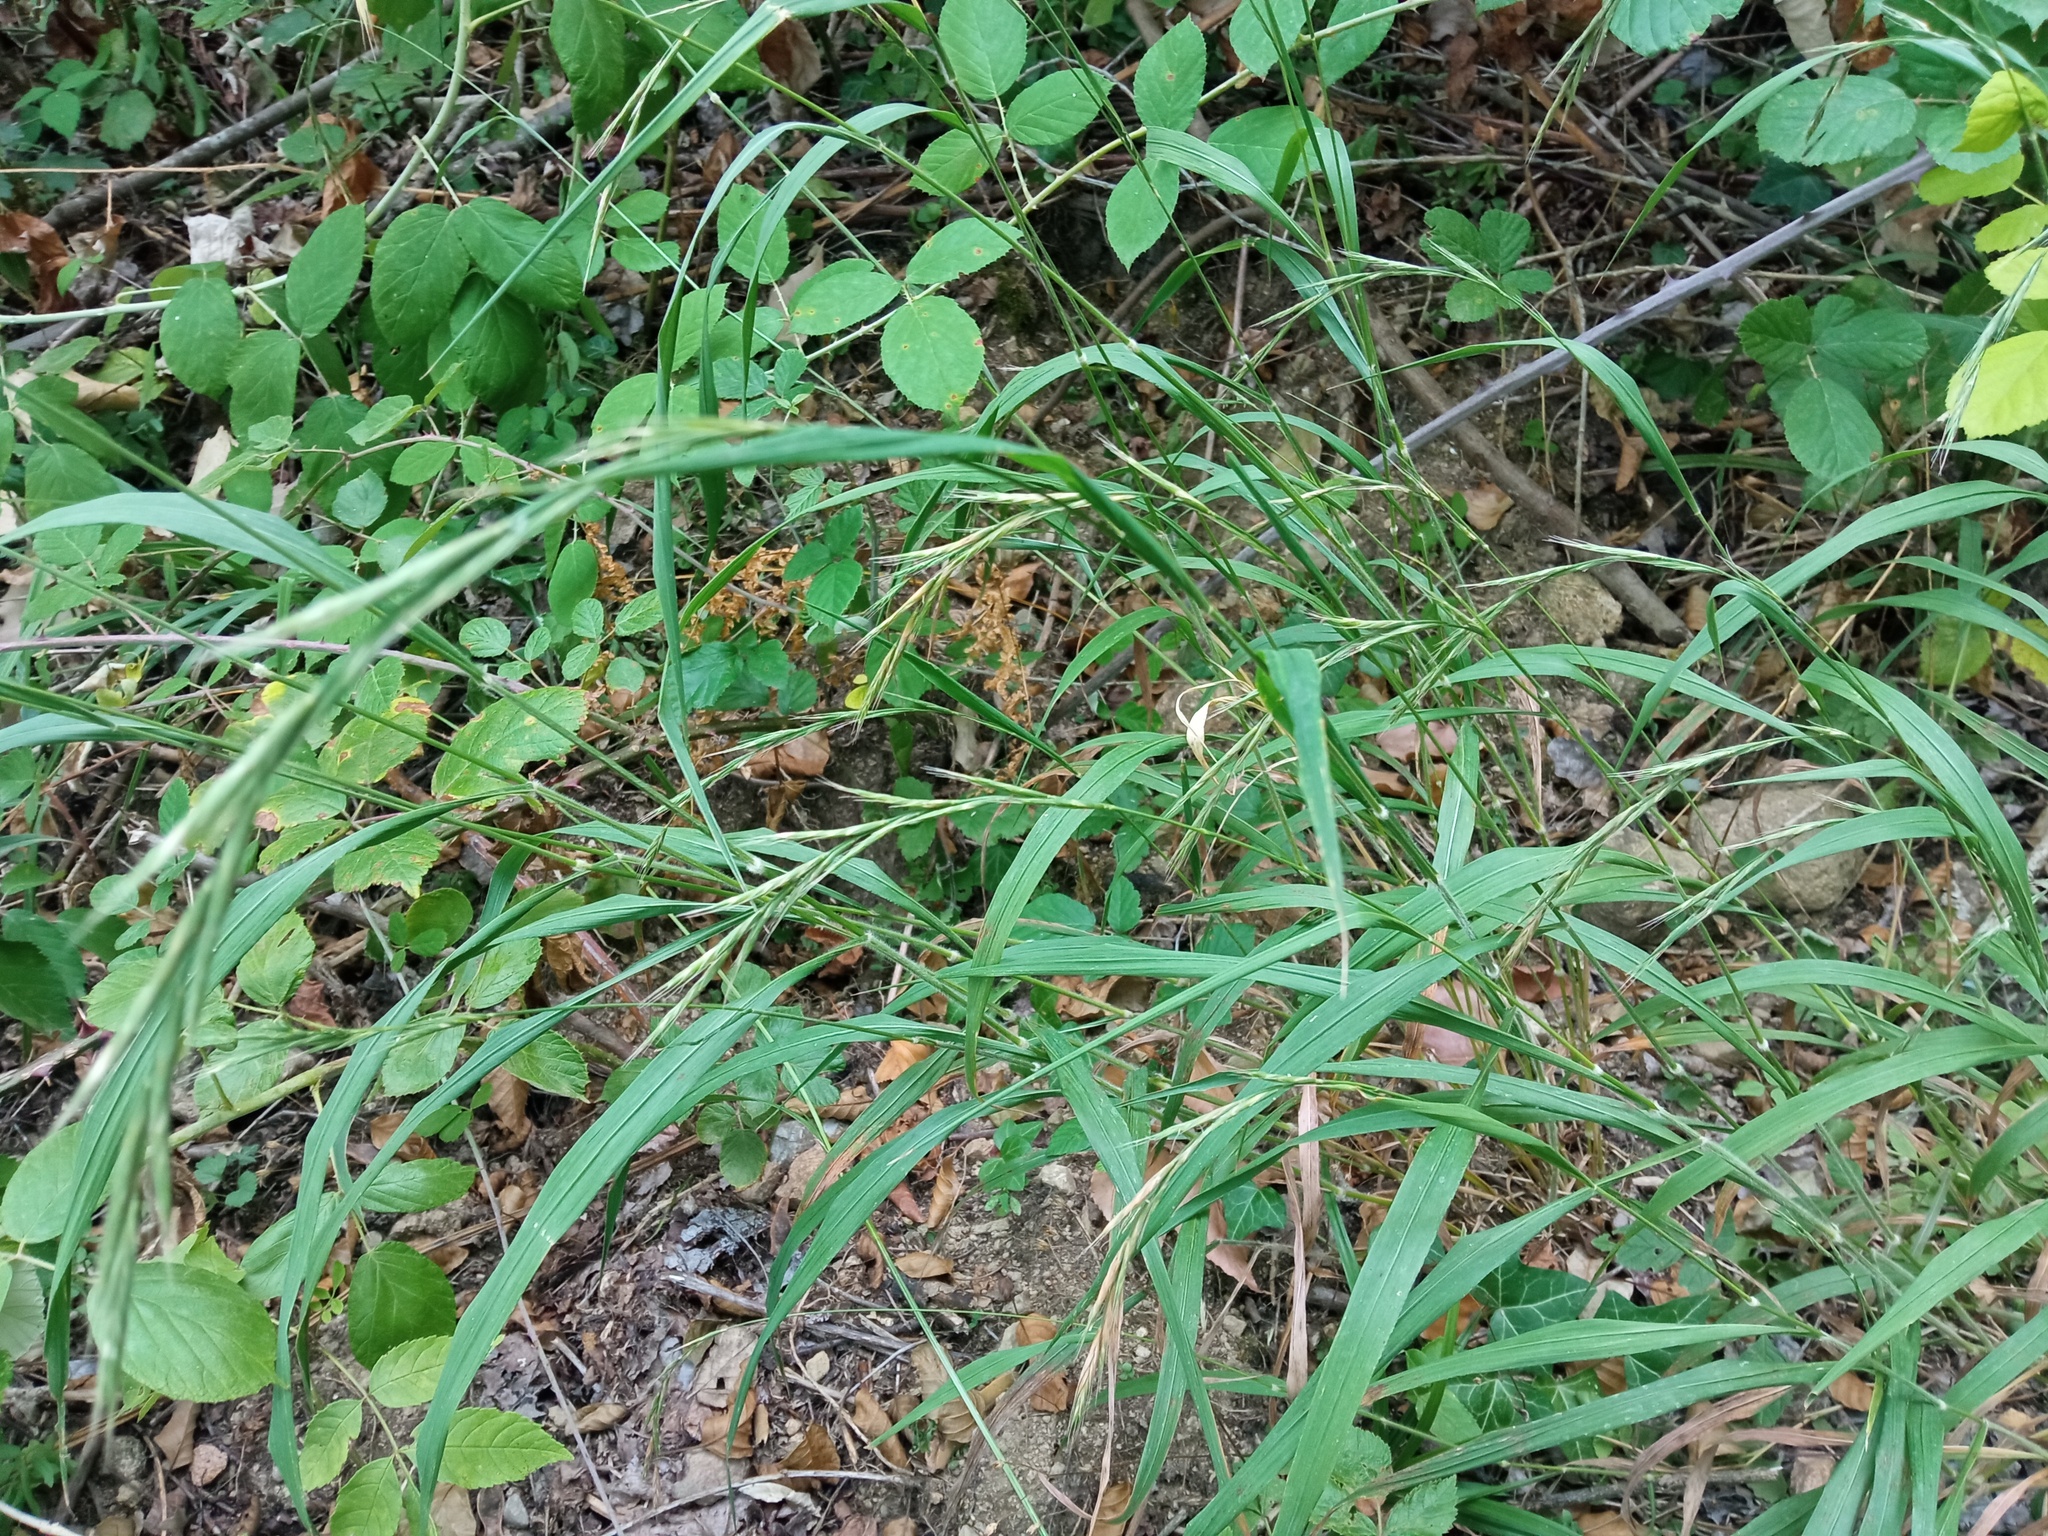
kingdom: Plantae
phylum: Tracheophyta
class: Liliopsida
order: Poales
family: Poaceae
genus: Brachypodium
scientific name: Brachypodium sylvaticum
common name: False-brome
